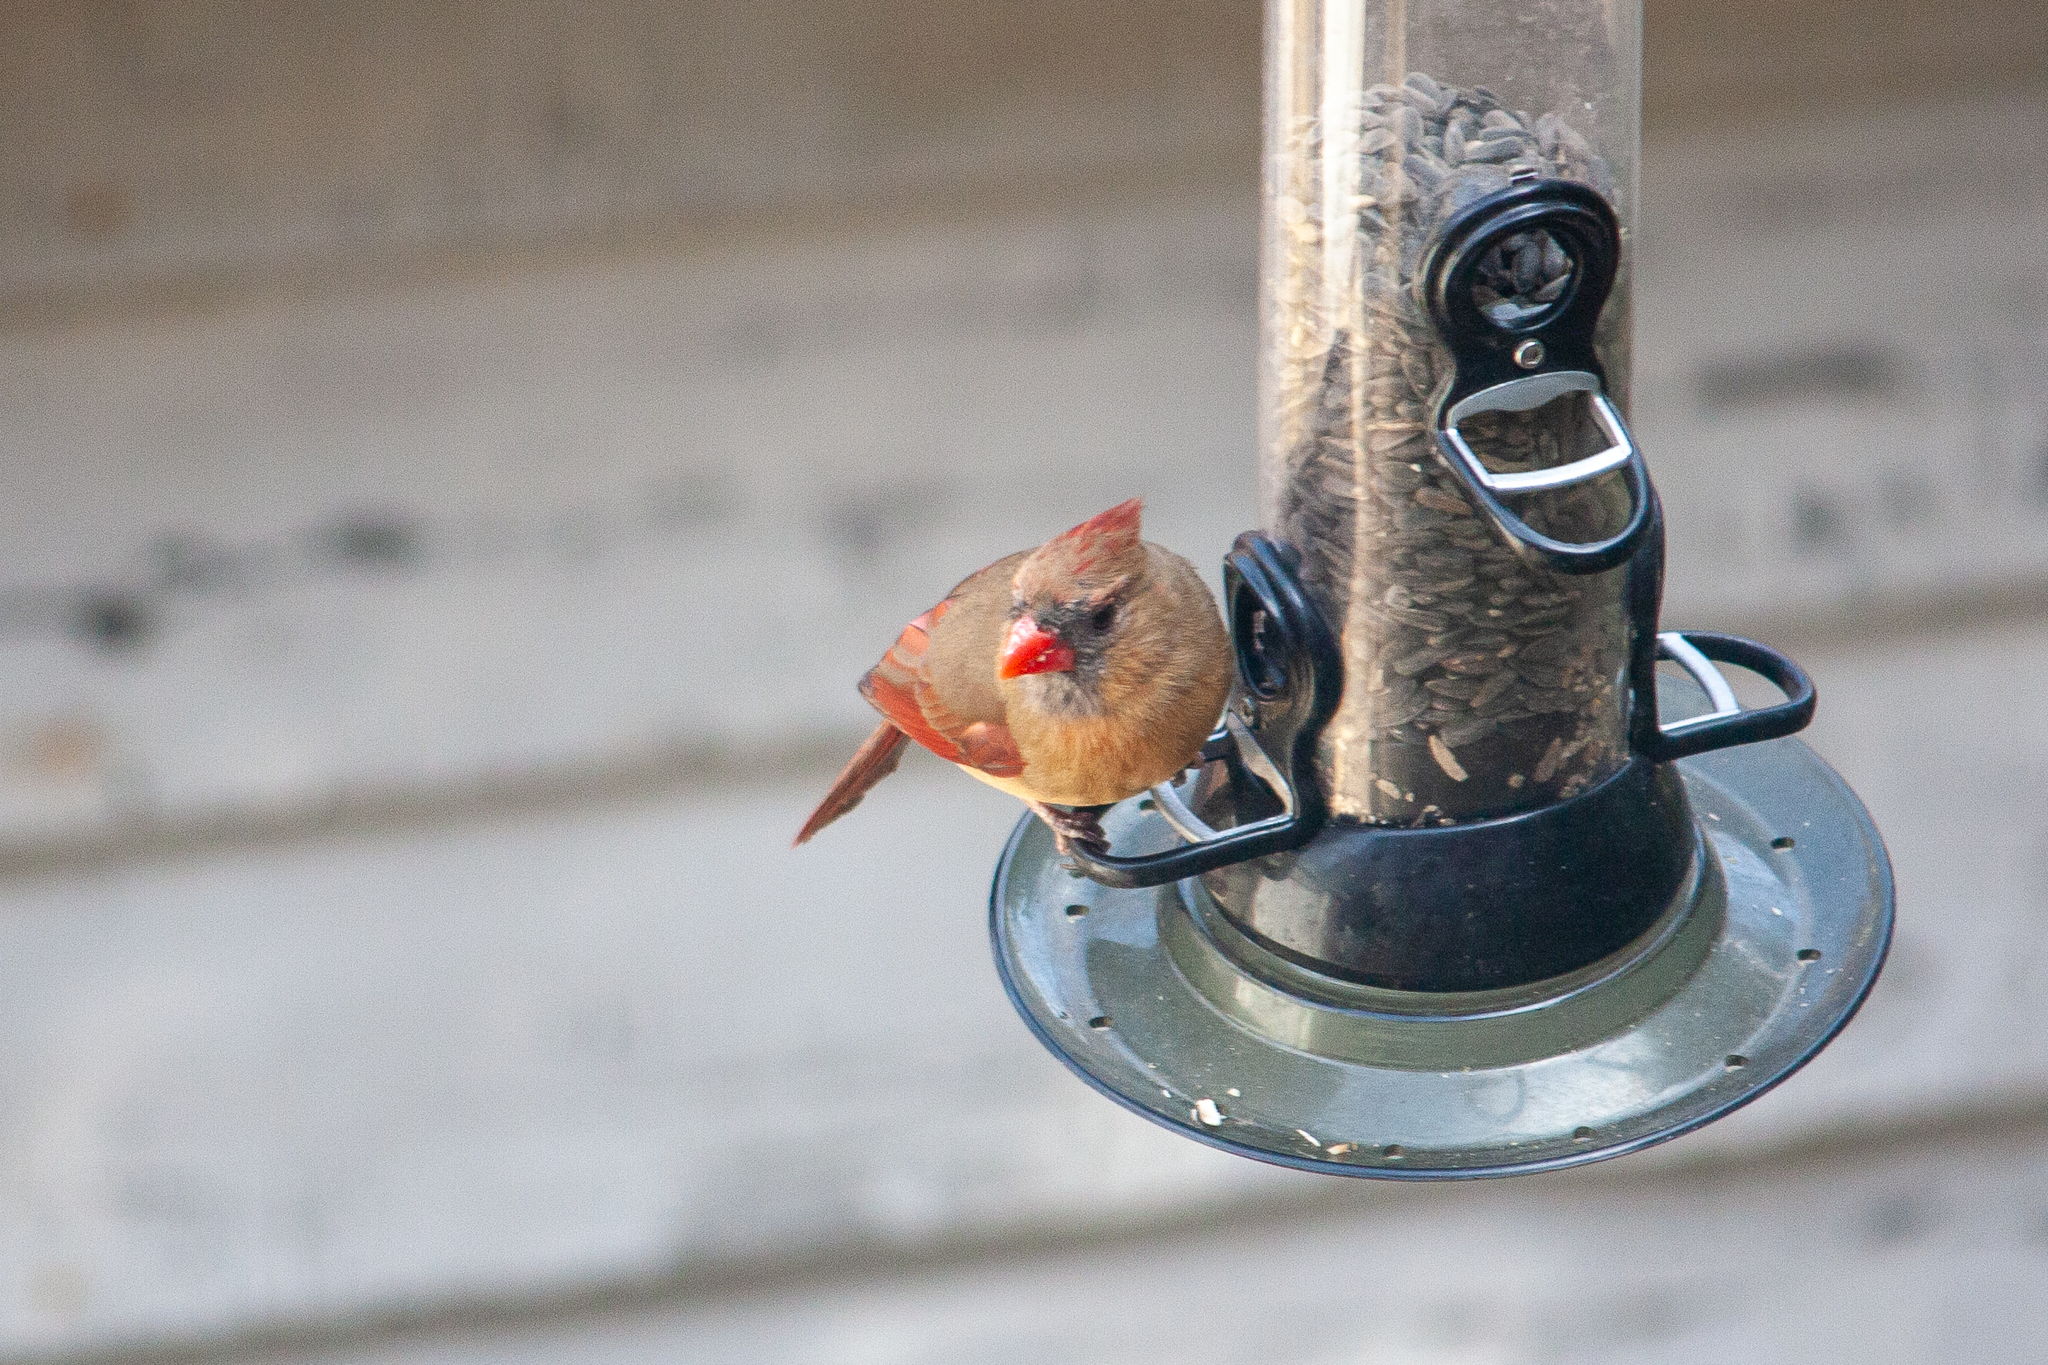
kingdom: Animalia
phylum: Chordata
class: Aves
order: Passeriformes
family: Cardinalidae
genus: Cardinalis
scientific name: Cardinalis cardinalis
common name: Northern cardinal
